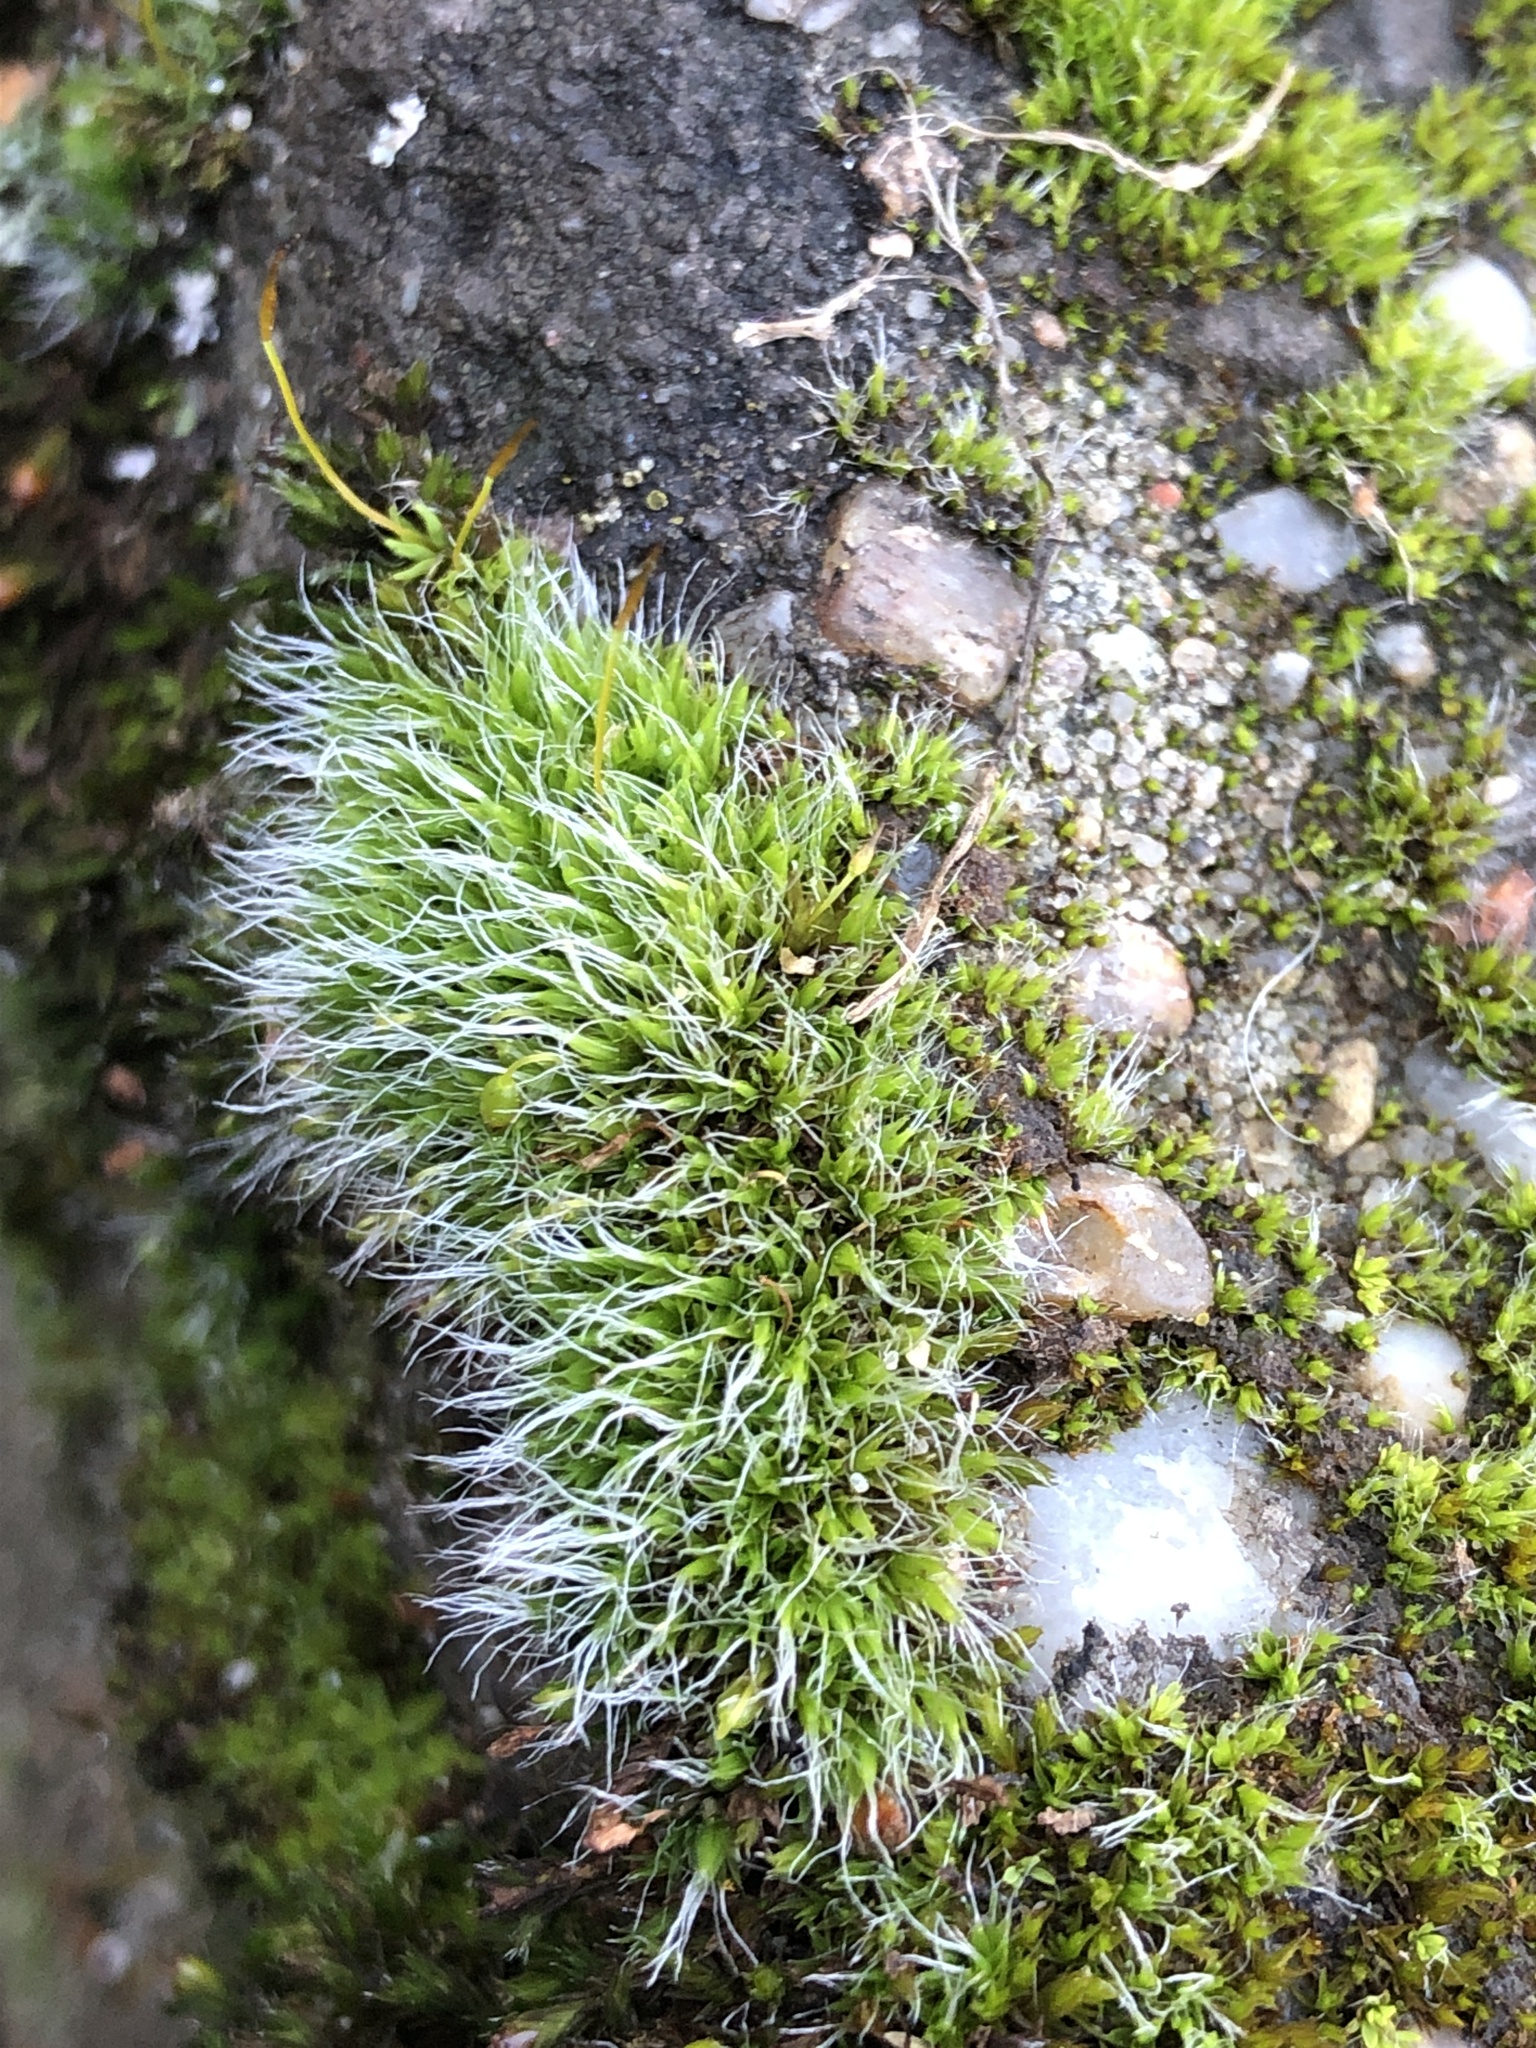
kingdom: Plantae
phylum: Bryophyta
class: Bryopsida
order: Grimmiales
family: Grimmiaceae
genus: Grimmia
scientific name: Grimmia pulvinata
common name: Grey-cushioned grimmia
